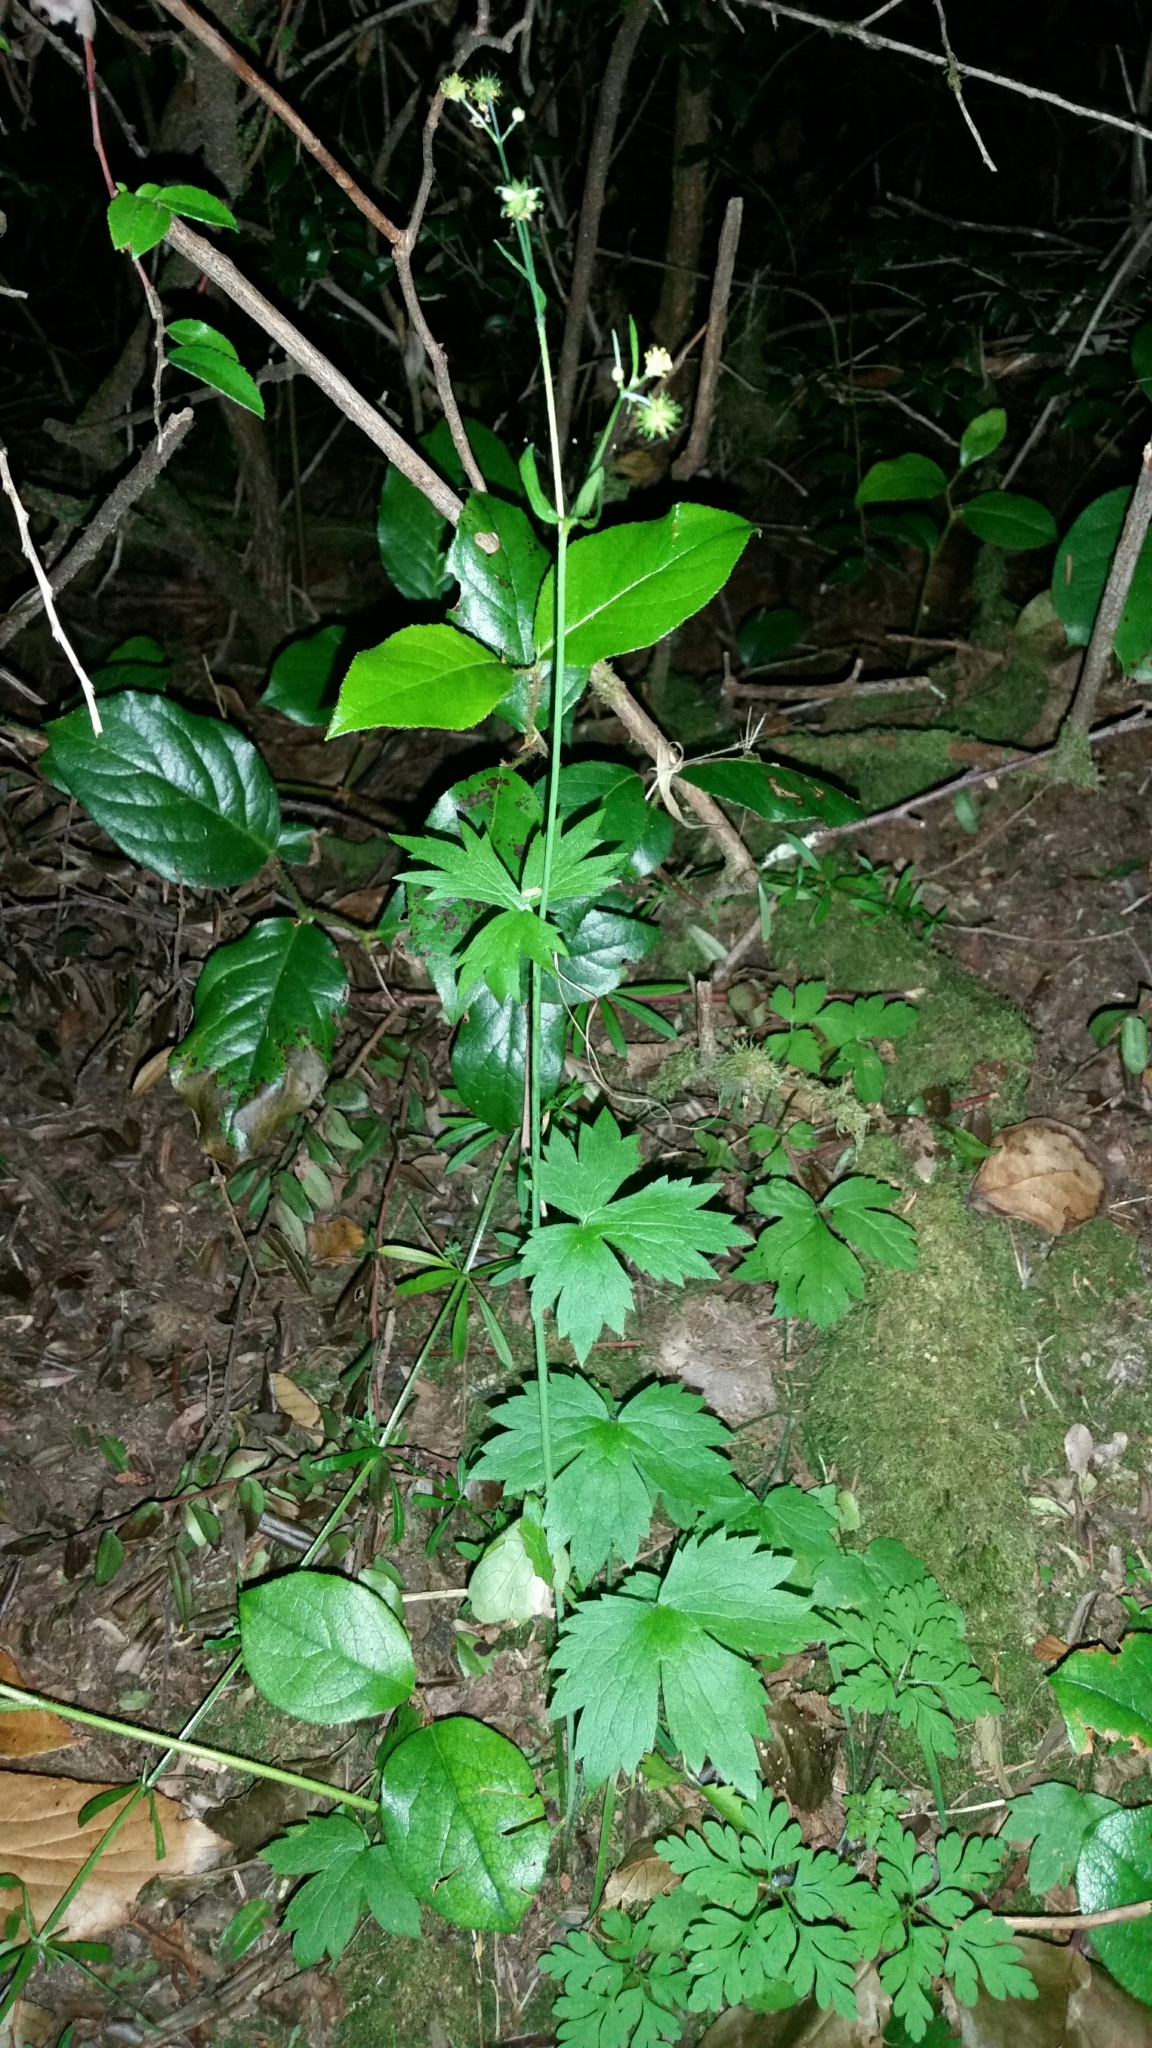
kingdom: Plantae
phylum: Tracheophyta
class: Magnoliopsida
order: Ranunculales
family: Ranunculaceae
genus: Ranunculus
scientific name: Ranunculus uncinatus
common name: Little buttercup
